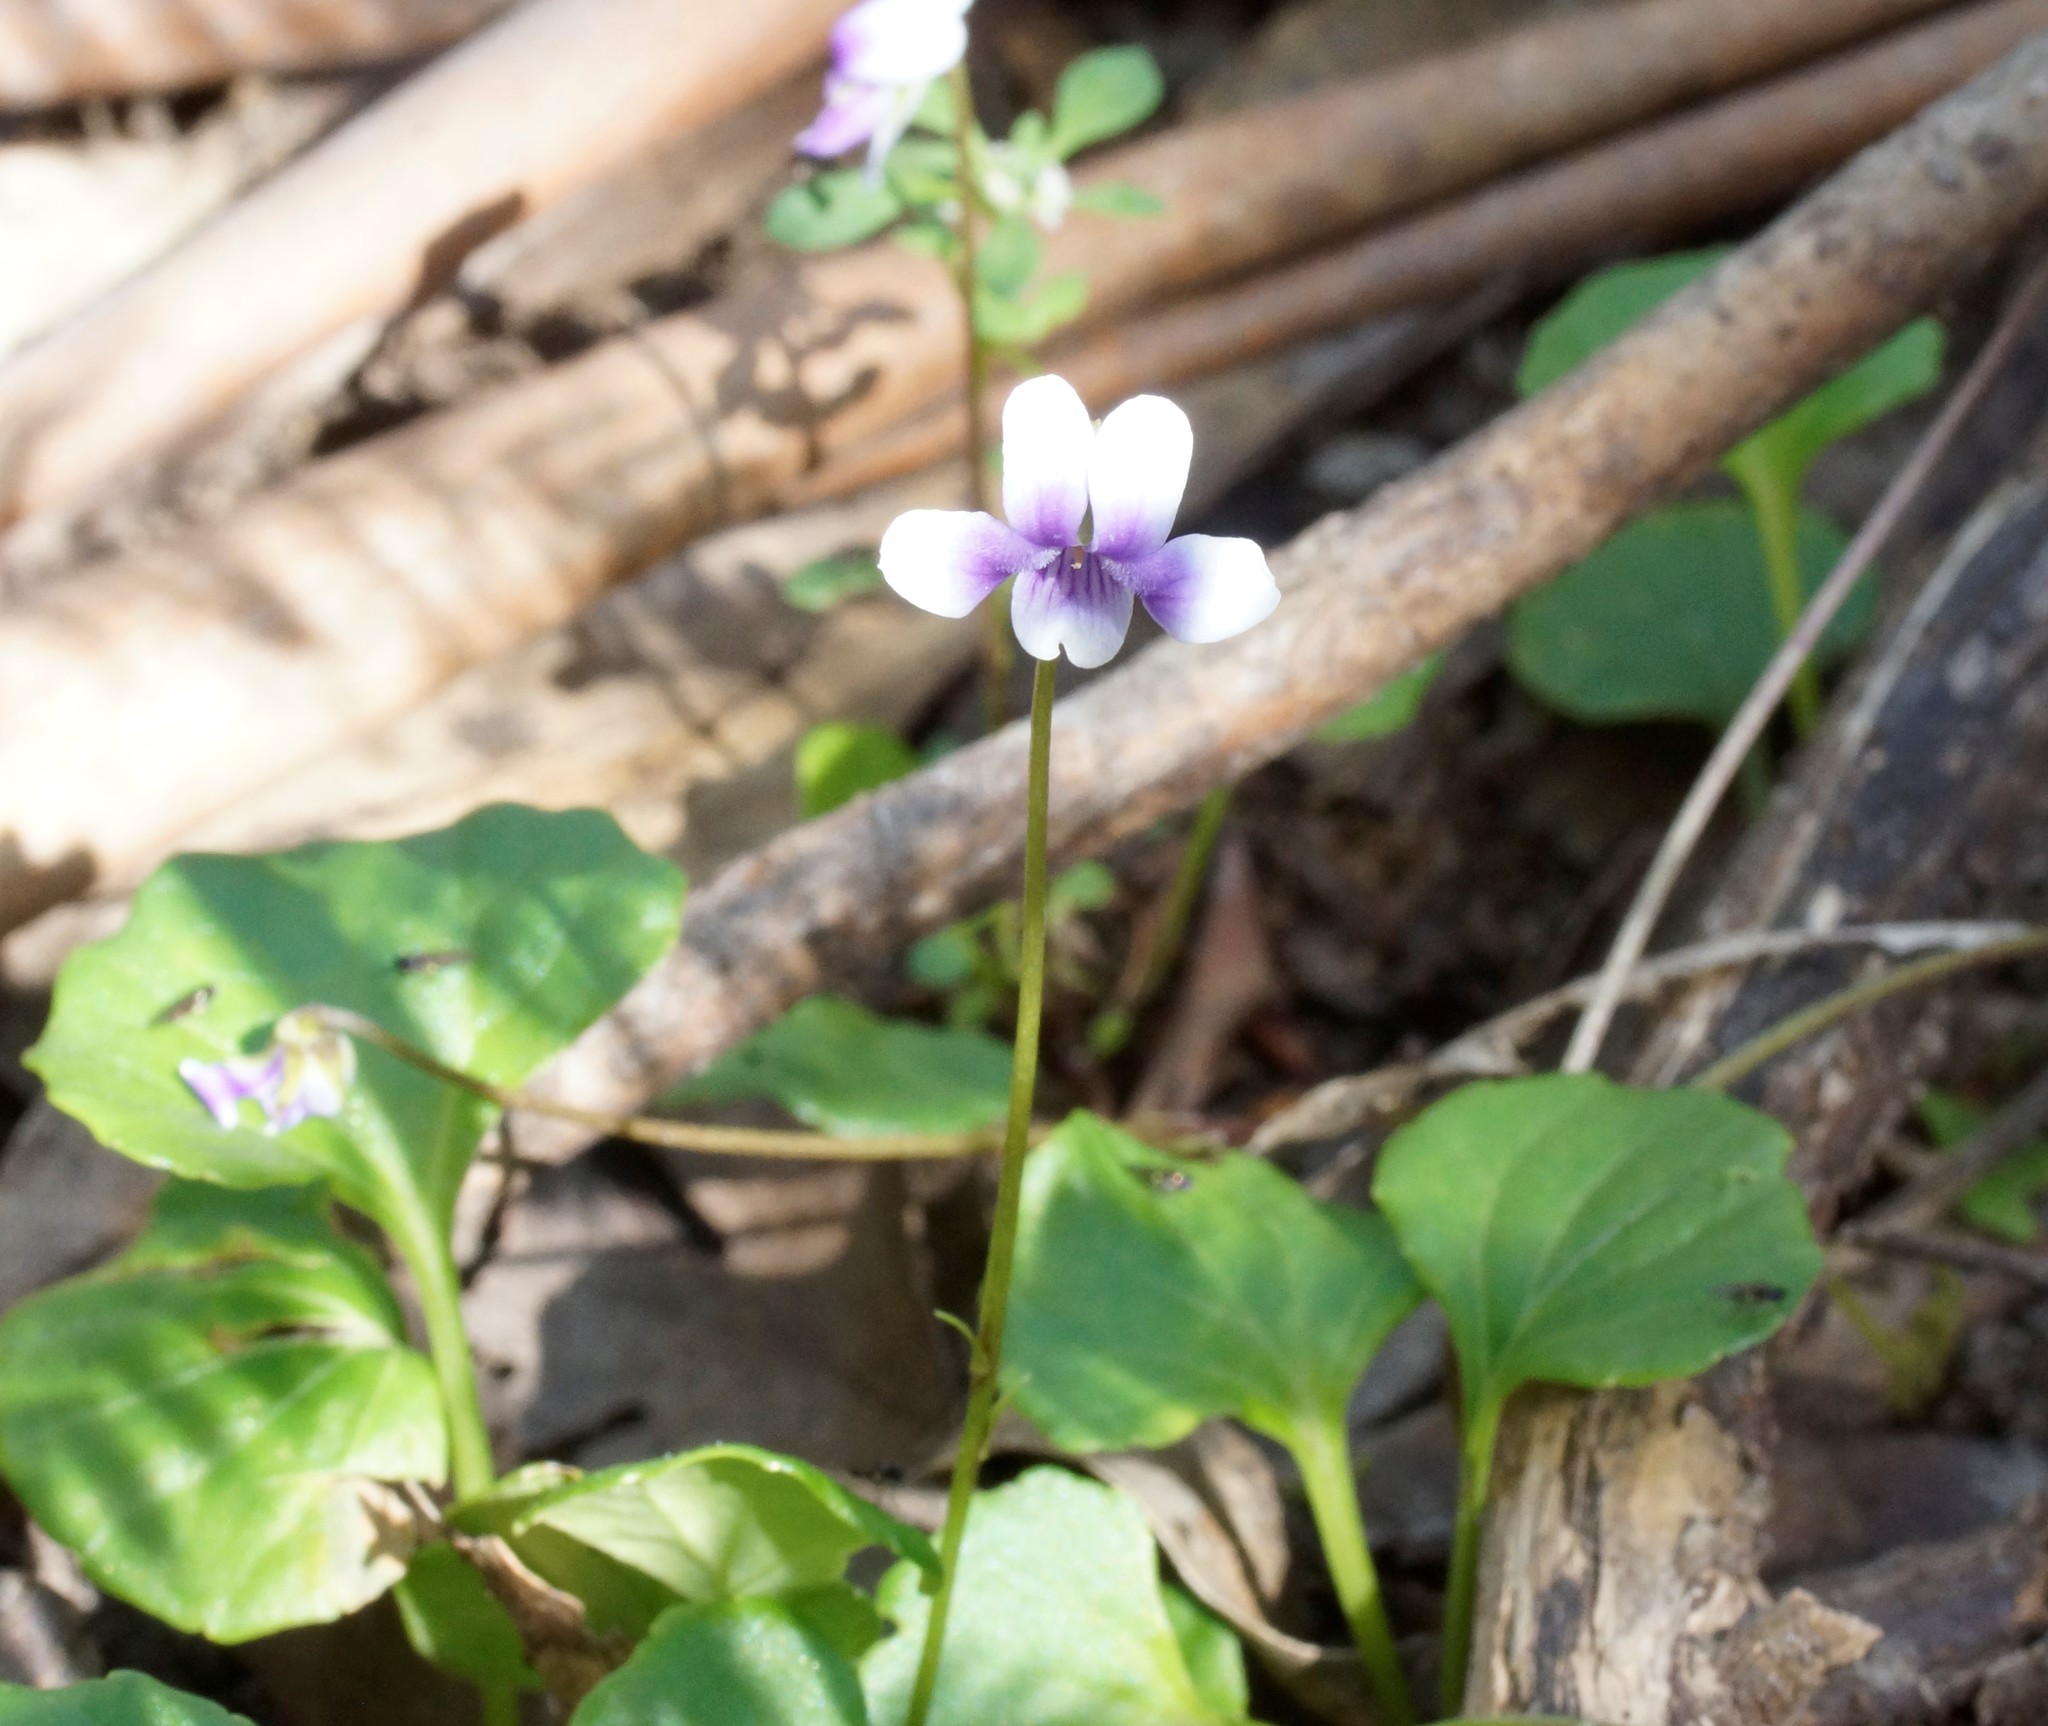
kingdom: Plantae
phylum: Tracheophyta
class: Magnoliopsida
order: Malpighiales
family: Violaceae
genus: Viola
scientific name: Viola hederacea
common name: Australian violet
